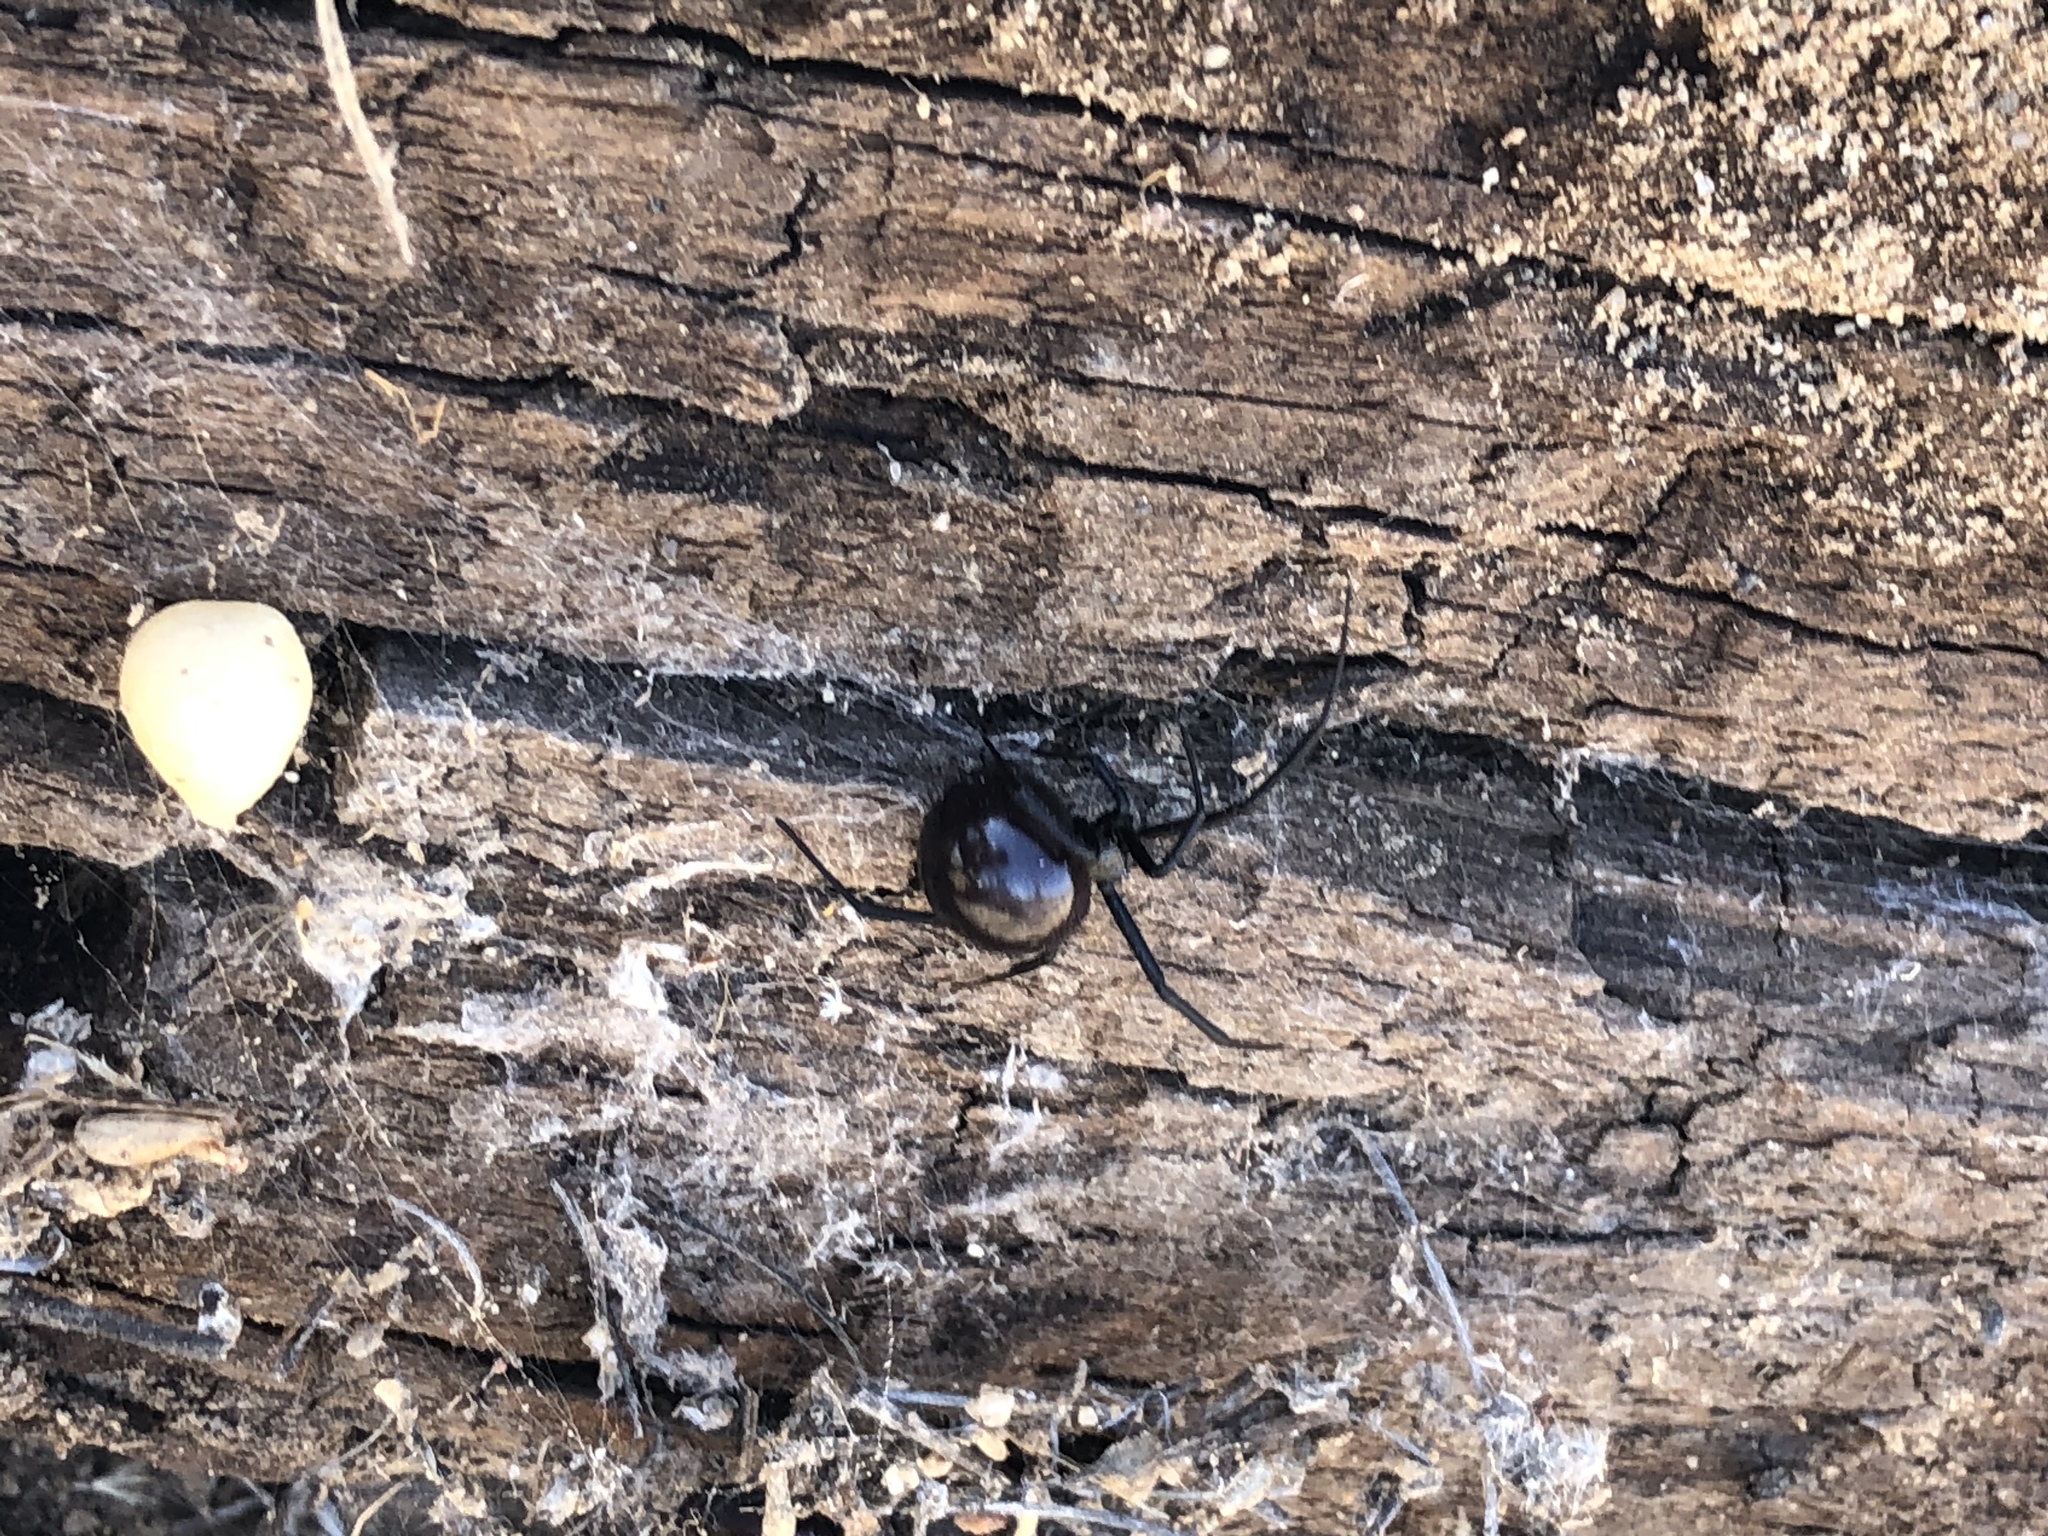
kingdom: Animalia
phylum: Arthropoda
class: Arachnida
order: Araneae
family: Theridiidae
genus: Latrodectus
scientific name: Latrodectus hesperus
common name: Western black widow
